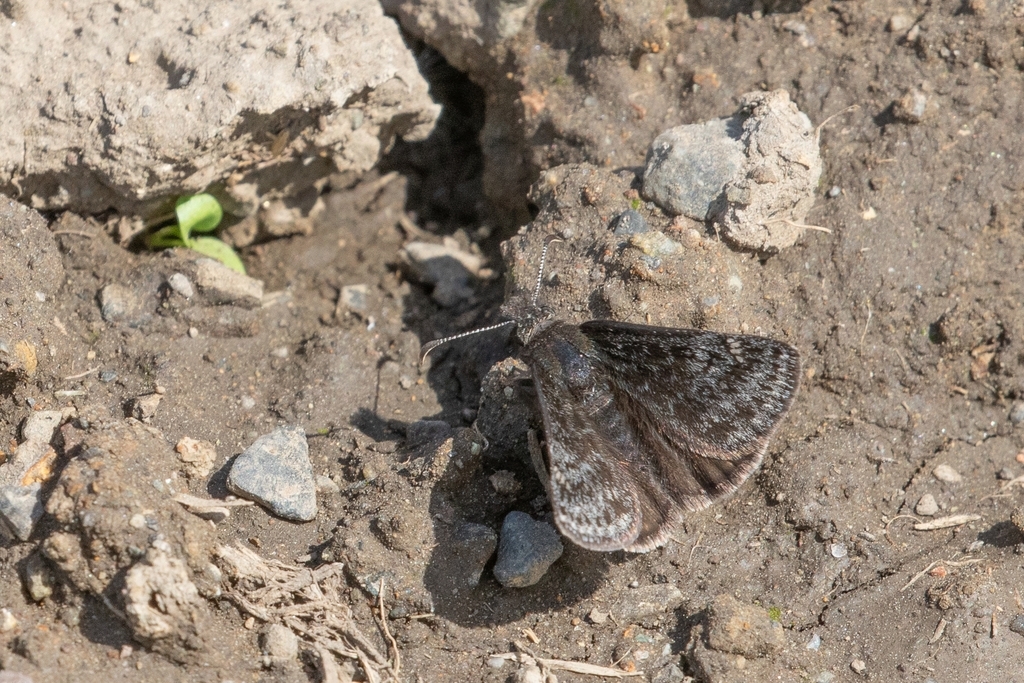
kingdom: Animalia
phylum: Arthropoda
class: Insecta
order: Lepidoptera
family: Hesperiidae
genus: Erynnis
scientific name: Erynnis persius
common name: Persius duskywing
